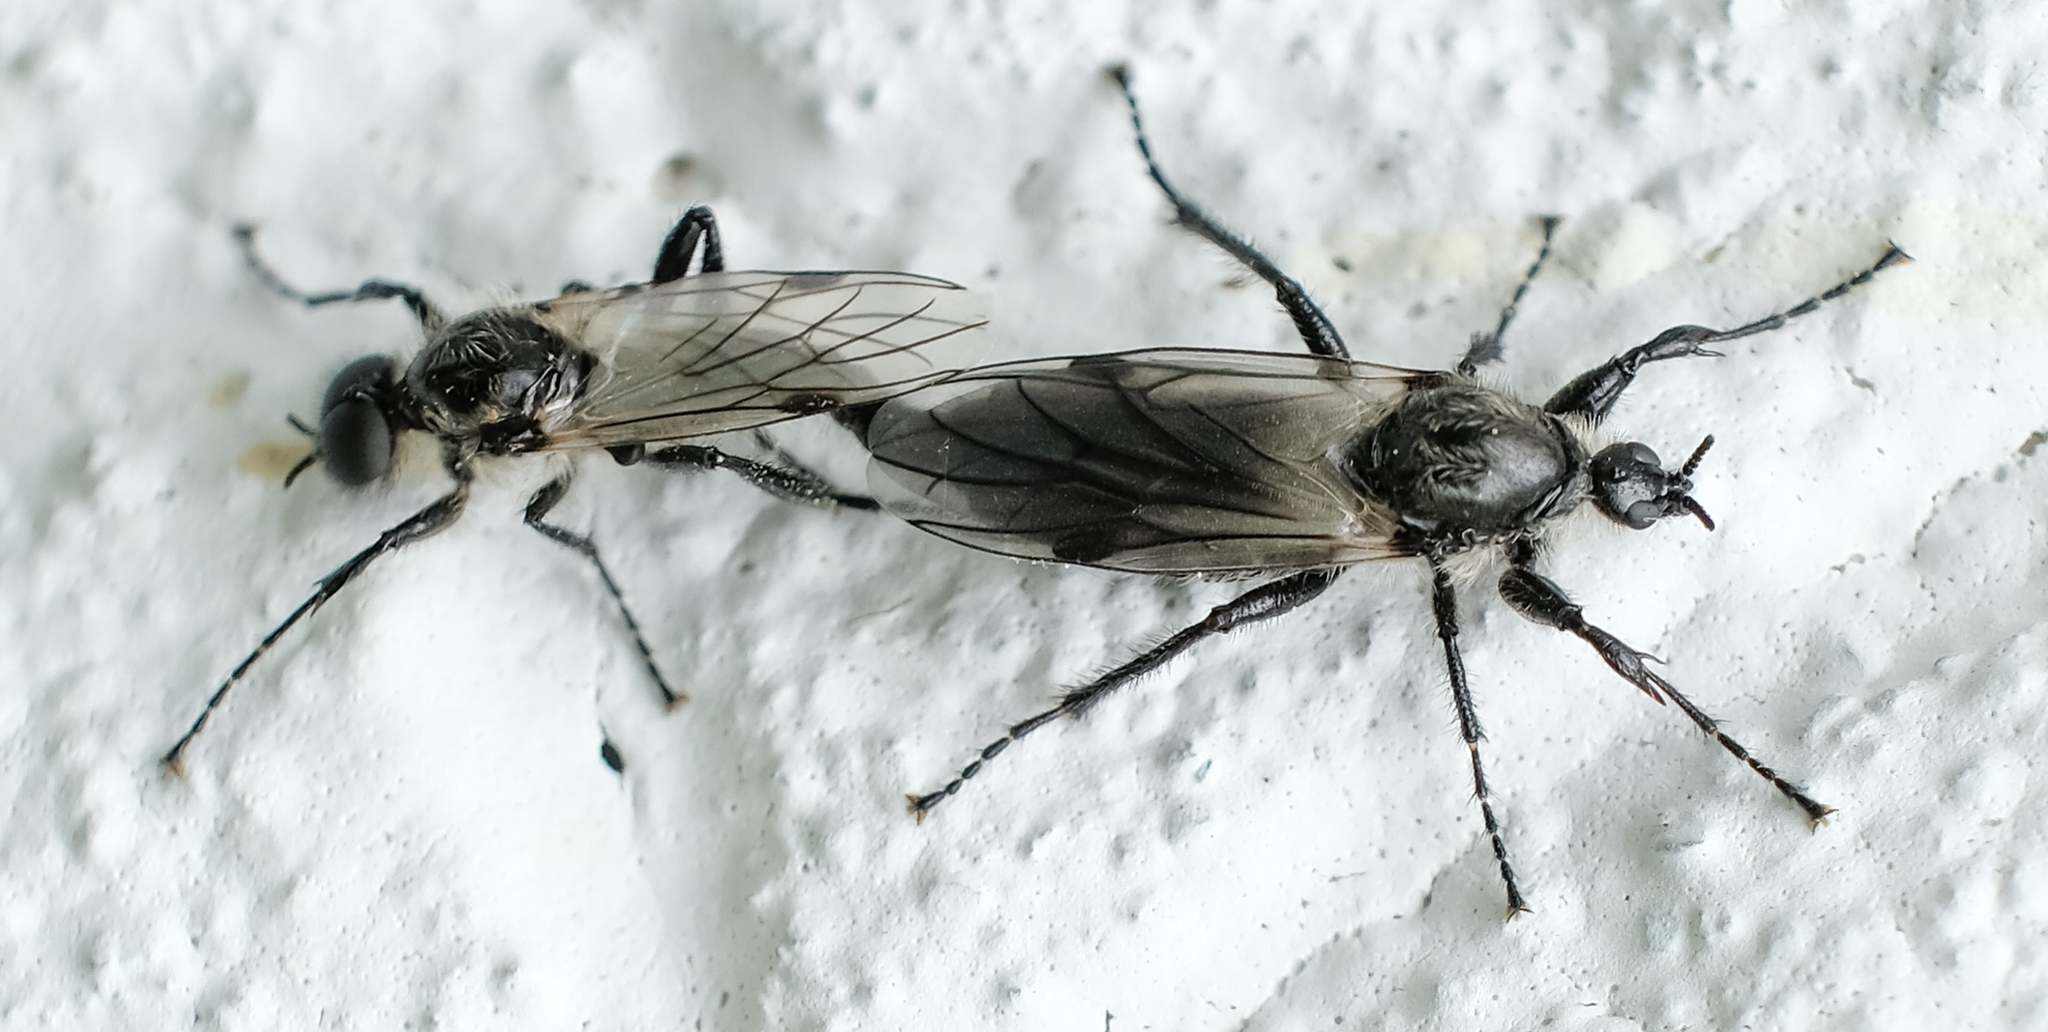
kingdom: Animalia
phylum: Arthropoda
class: Insecta
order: Diptera
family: Bibionidae
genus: Bibio
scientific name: Bibio albipennis
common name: White-winged march fly
